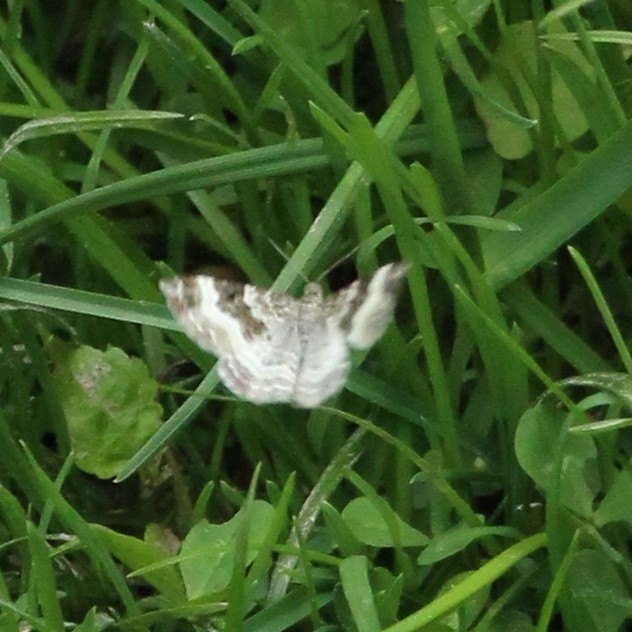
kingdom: Animalia
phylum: Arthropoda
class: Insecta
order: Lepidoptera
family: Geometridae
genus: Epirrhoe
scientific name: Epirrhoe alternata
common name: Common carpet
